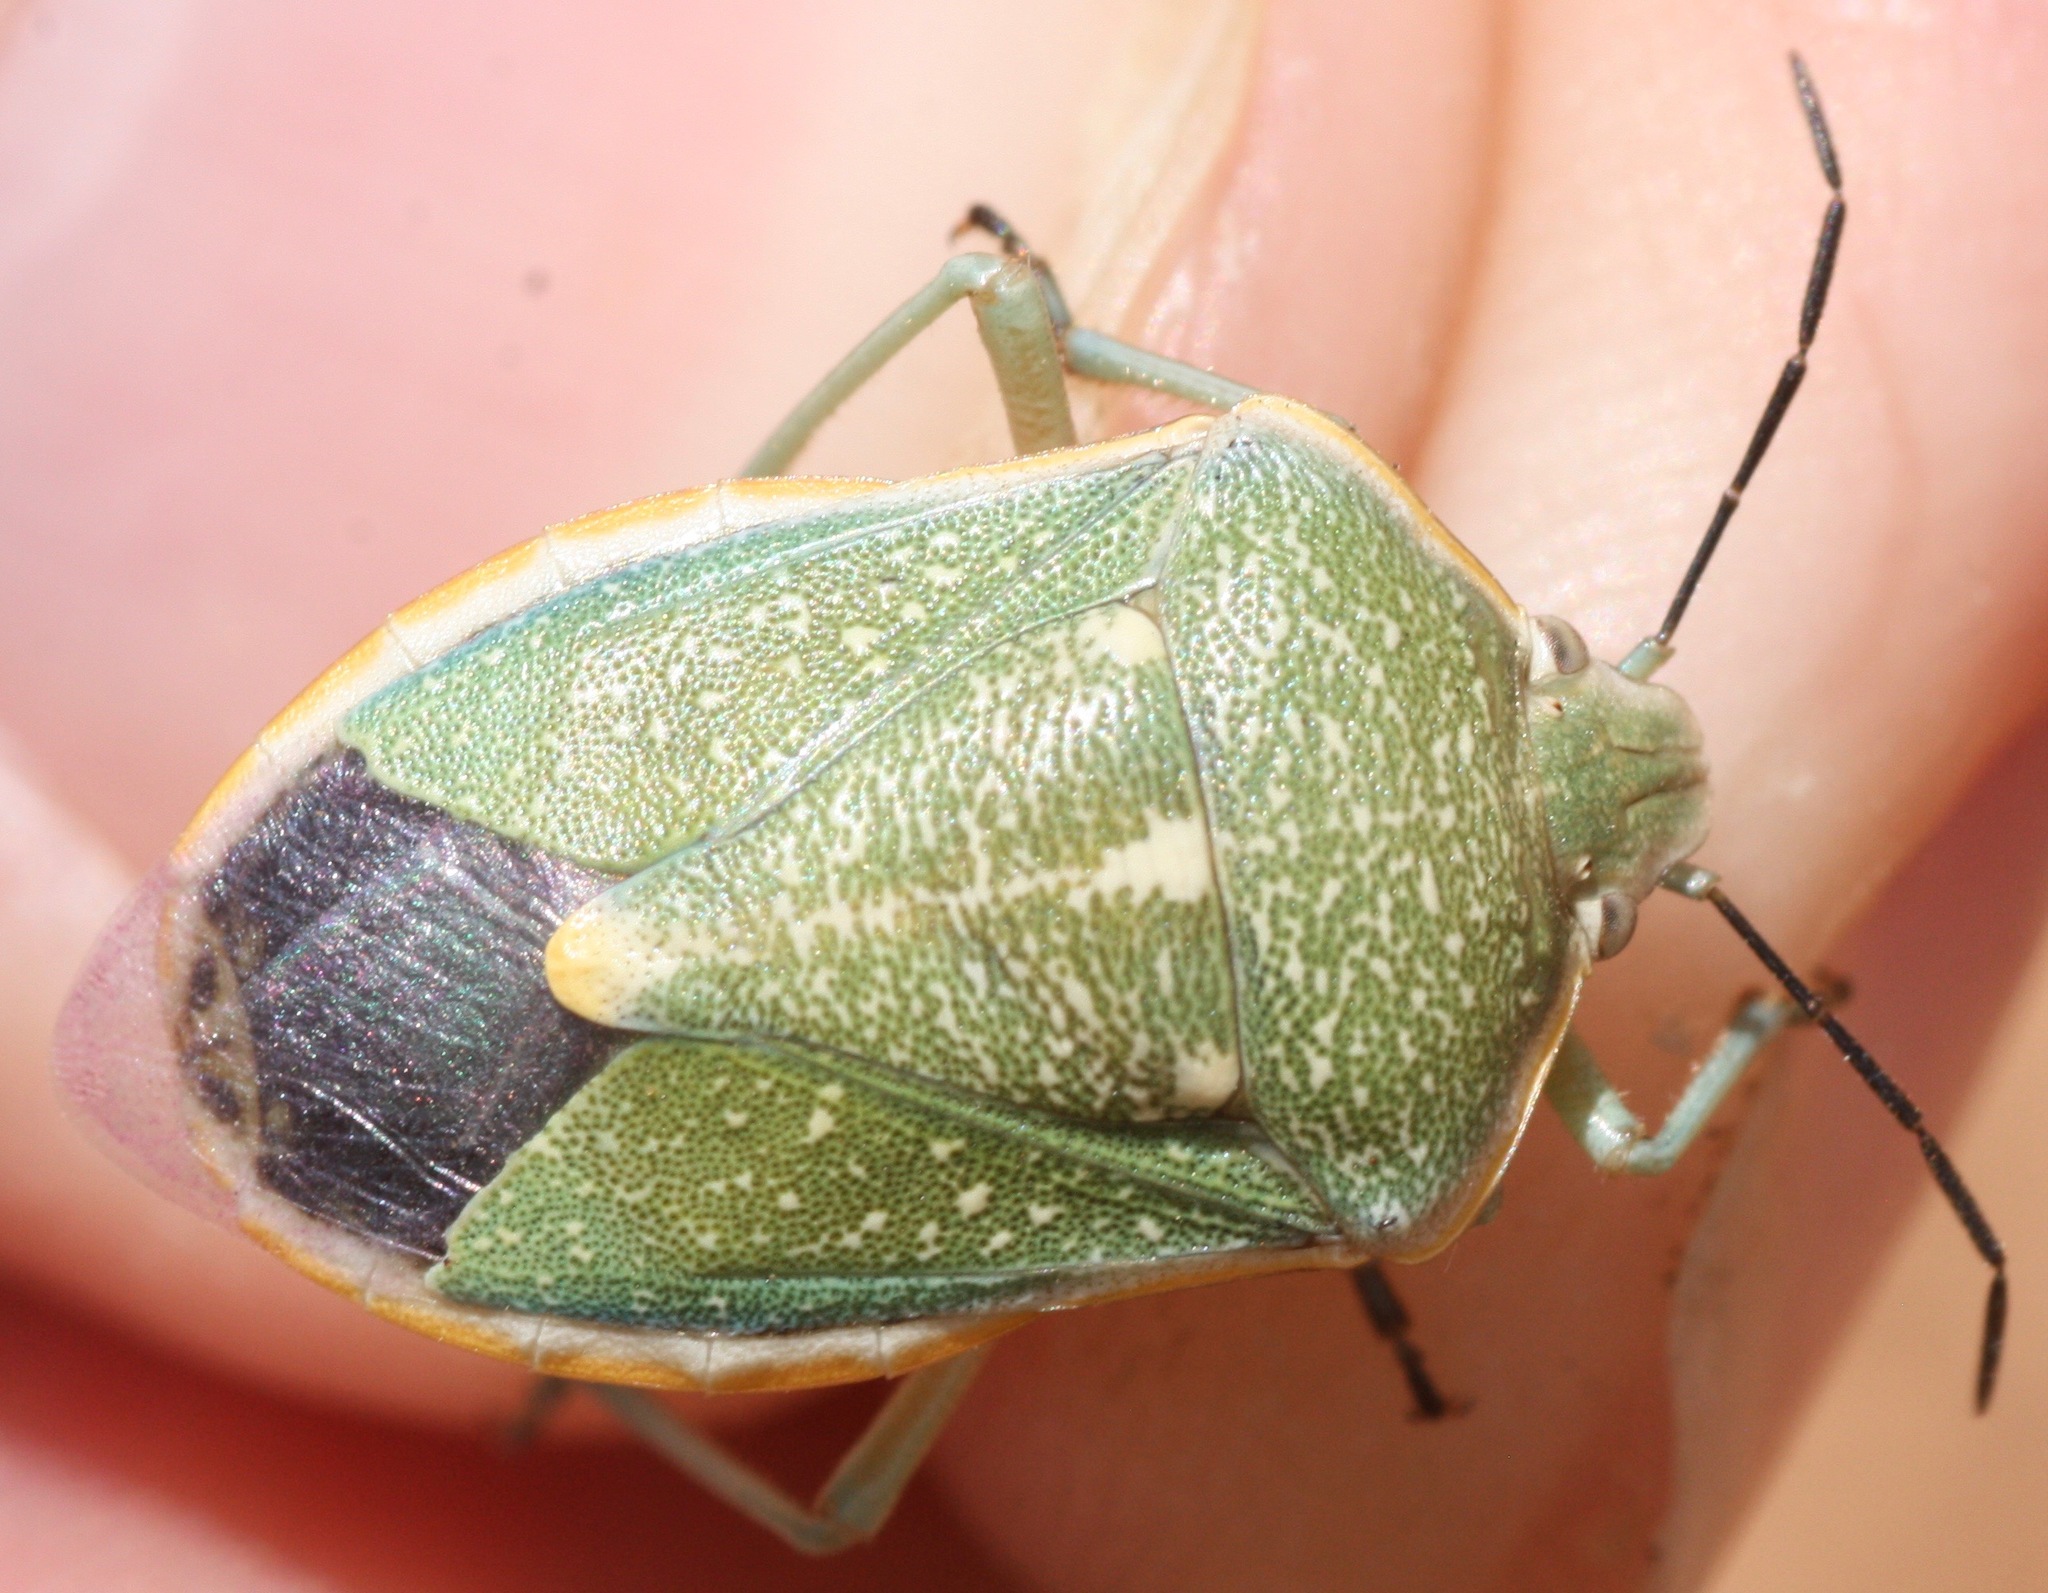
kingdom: Animalia
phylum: Arthropoda
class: Insecta
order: Hemiptera
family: Pentatomidae
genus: Chlorochroa
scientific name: Chlorochroa sayi
